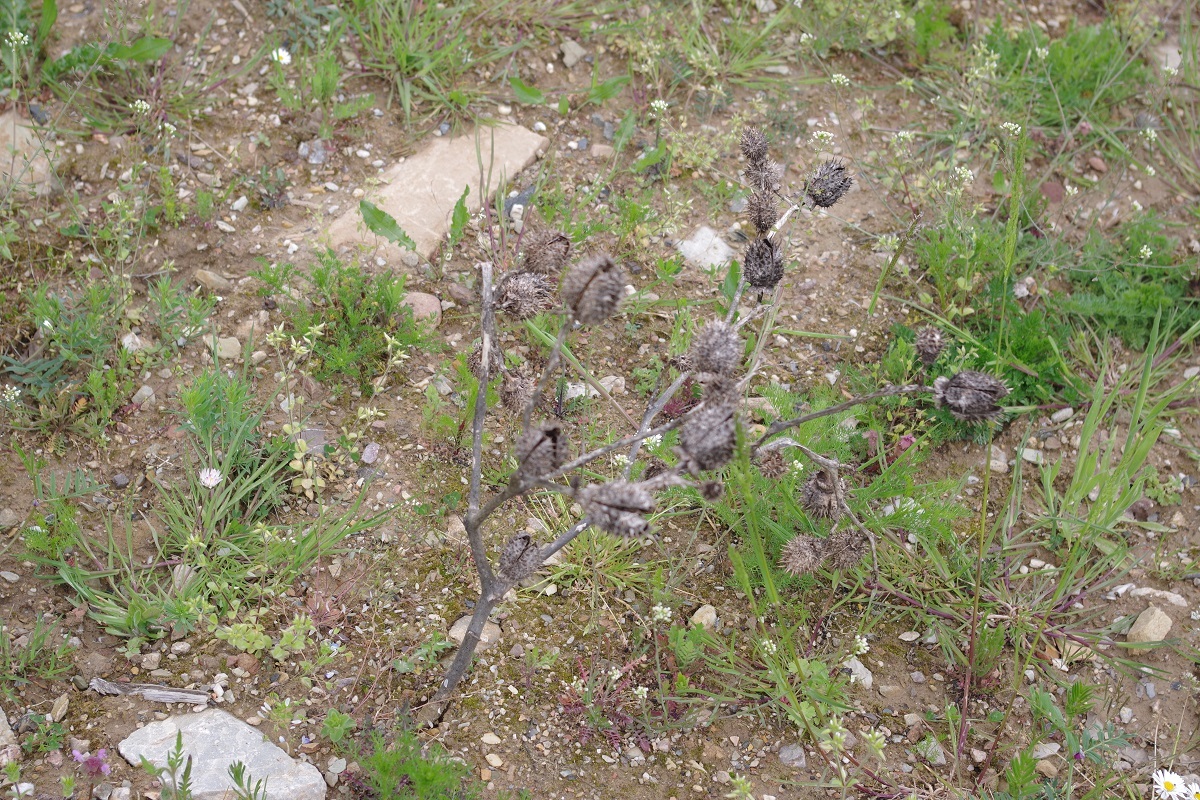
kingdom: Plantae
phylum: Tracheophyta
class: Magnoliopsida
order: Solanales
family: Solanaceae
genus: Datura
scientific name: Datura stramonium
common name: Thorn-apple
